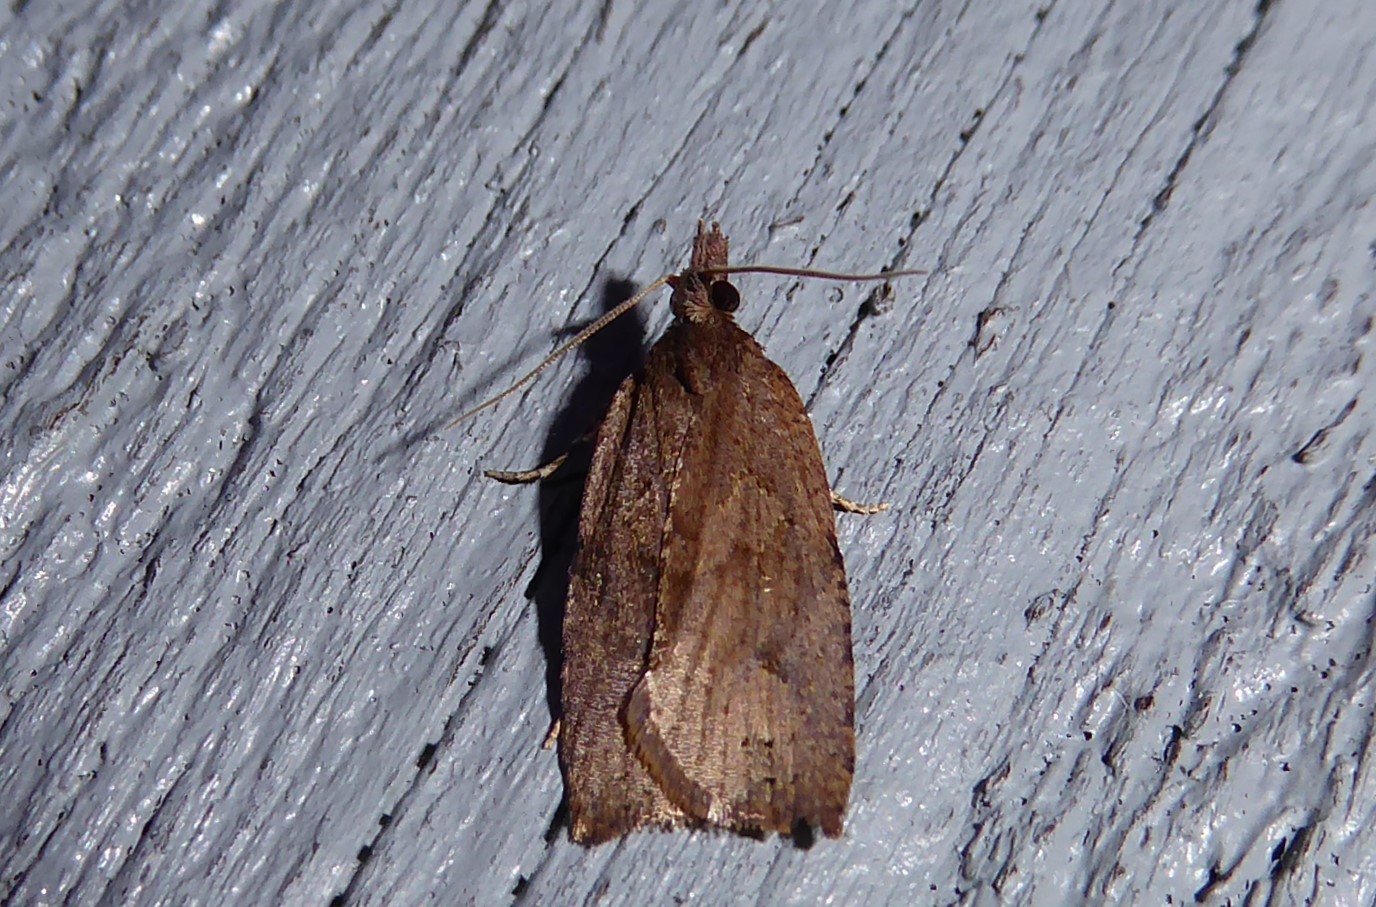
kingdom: Animalia
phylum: Arthropoda
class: Insecta
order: Lepidoptera
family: Tortricidae
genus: Planotortrix
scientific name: Planotortrix excessana
